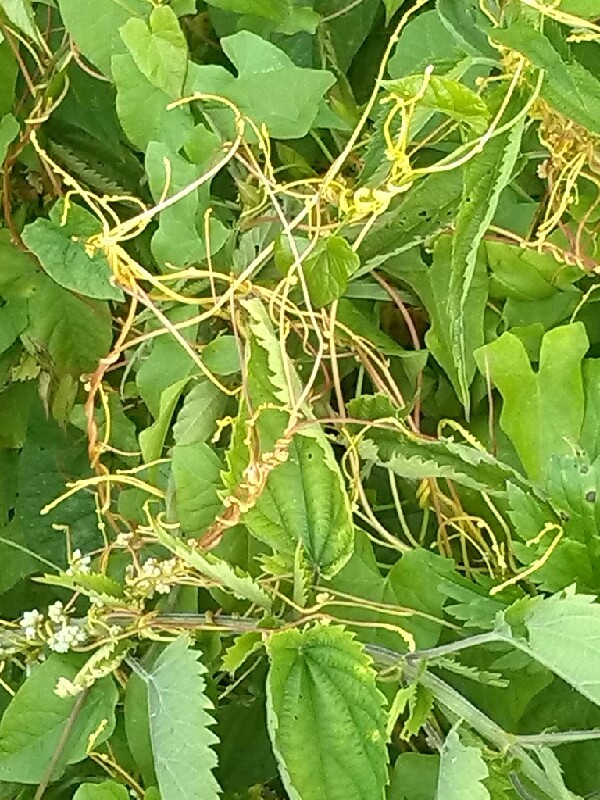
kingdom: Plantae
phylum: Tracheophyta
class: Magnoliopsida
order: Solanales
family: Convolvulaceae
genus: Cuscuta
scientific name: Cuscuta europaea
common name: Greater dodder
